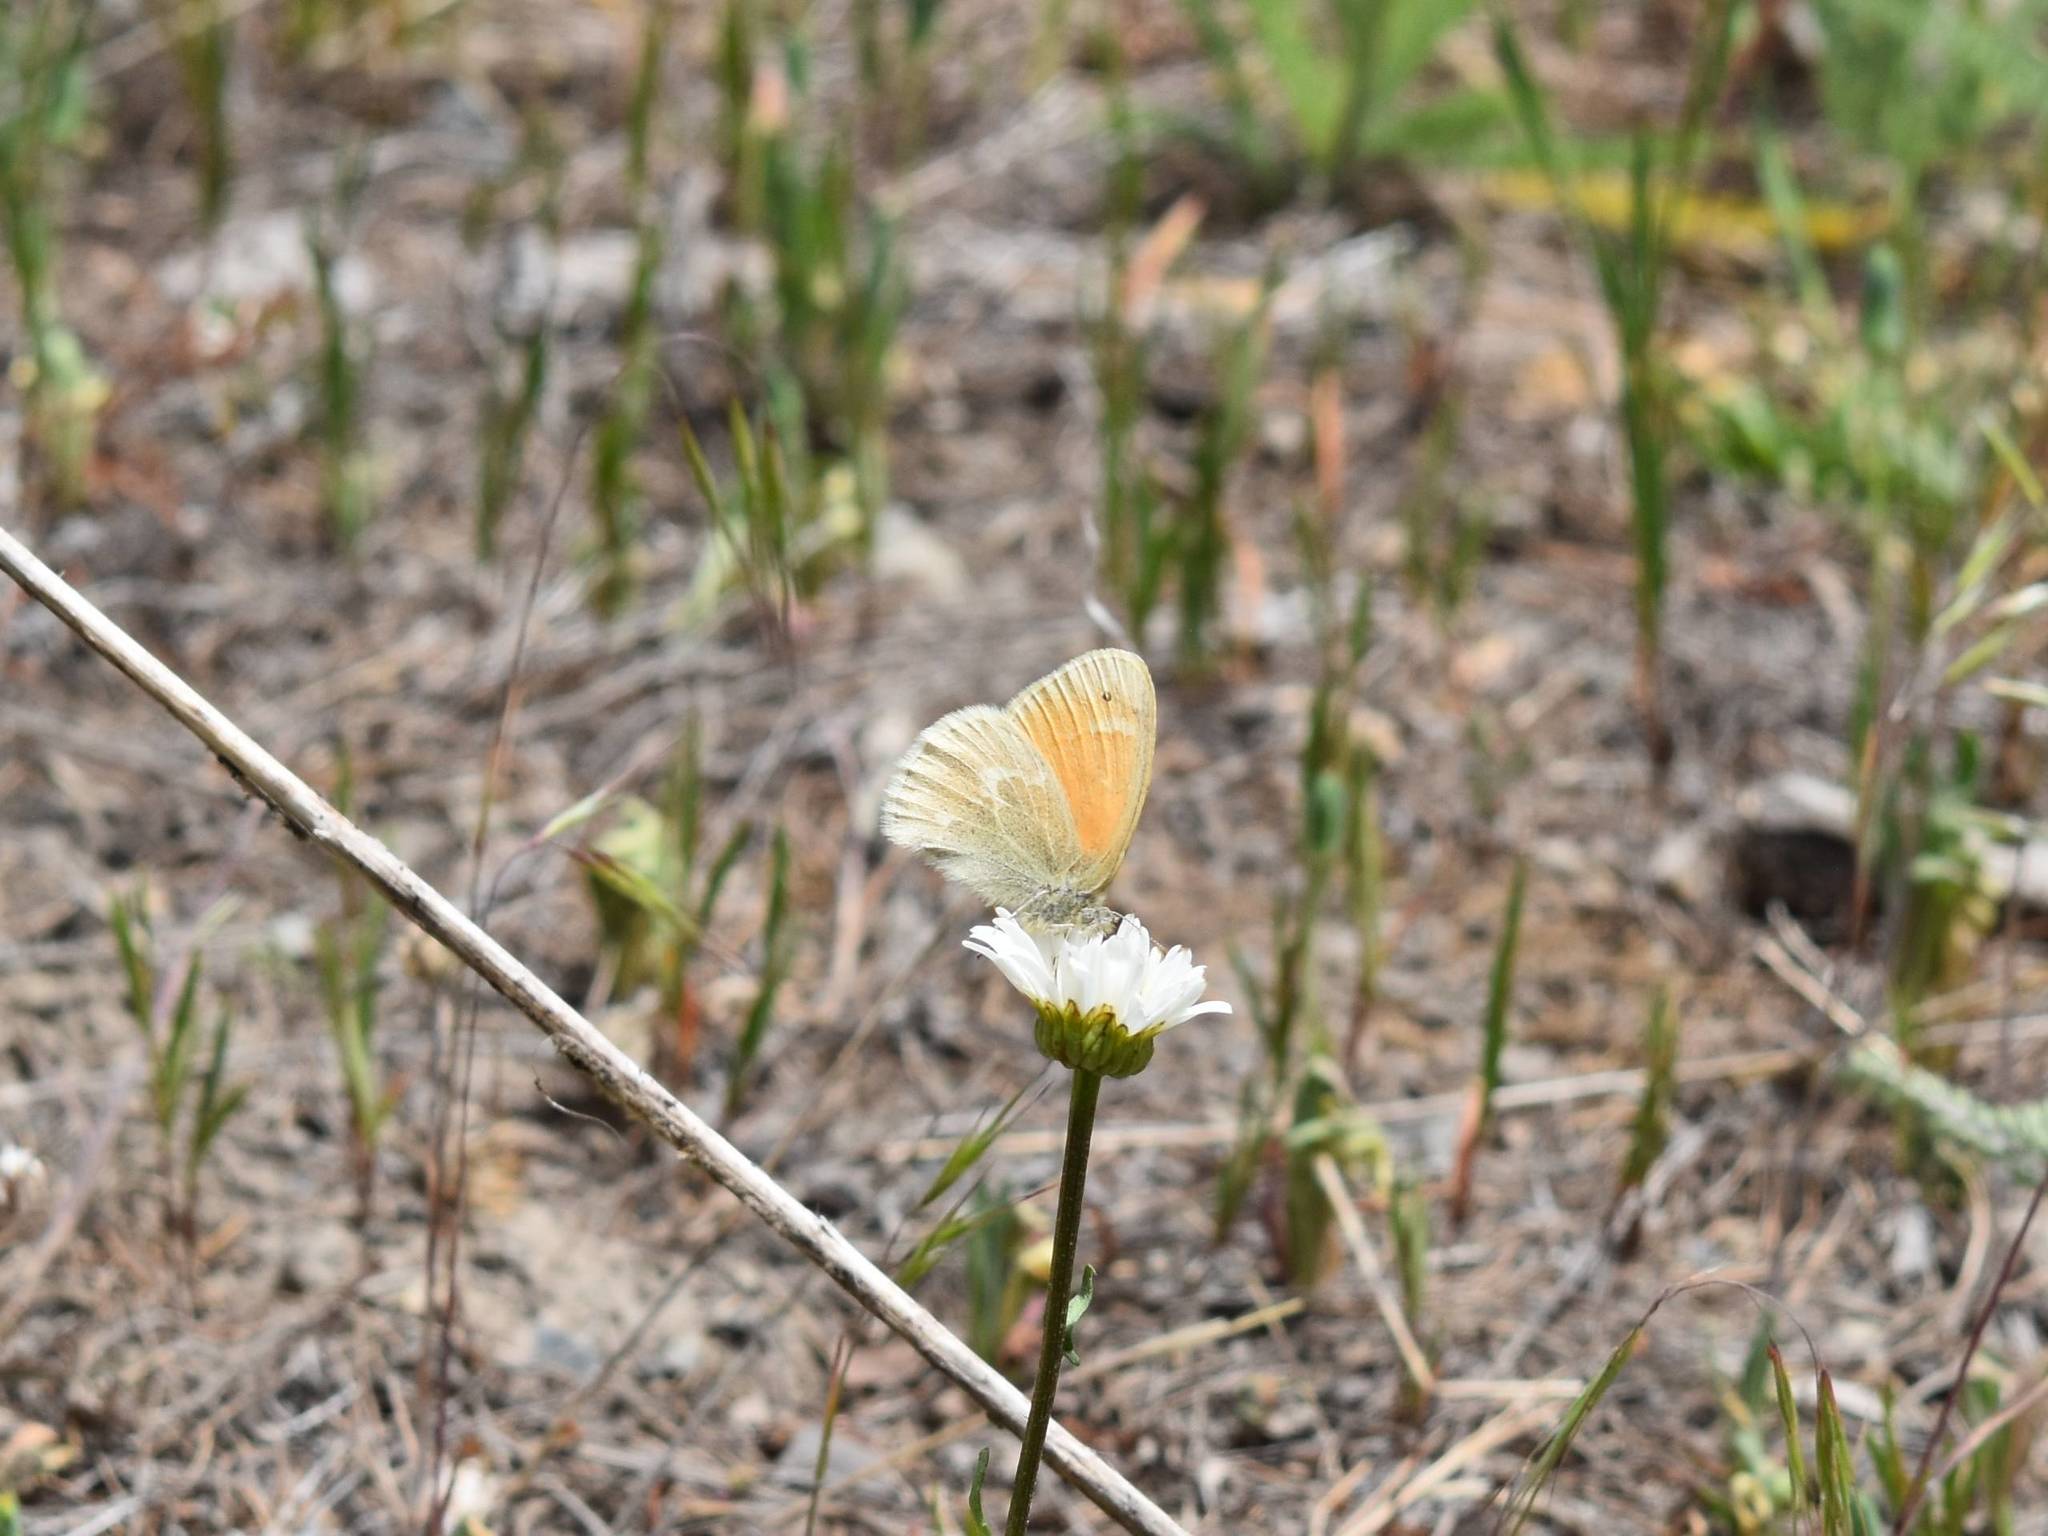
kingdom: Animalia
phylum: Arthropoda
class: Insecta
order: Lepidoptera
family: Nymphalidae
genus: Coenonympha
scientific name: Coenonympha california
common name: Common ringlet
